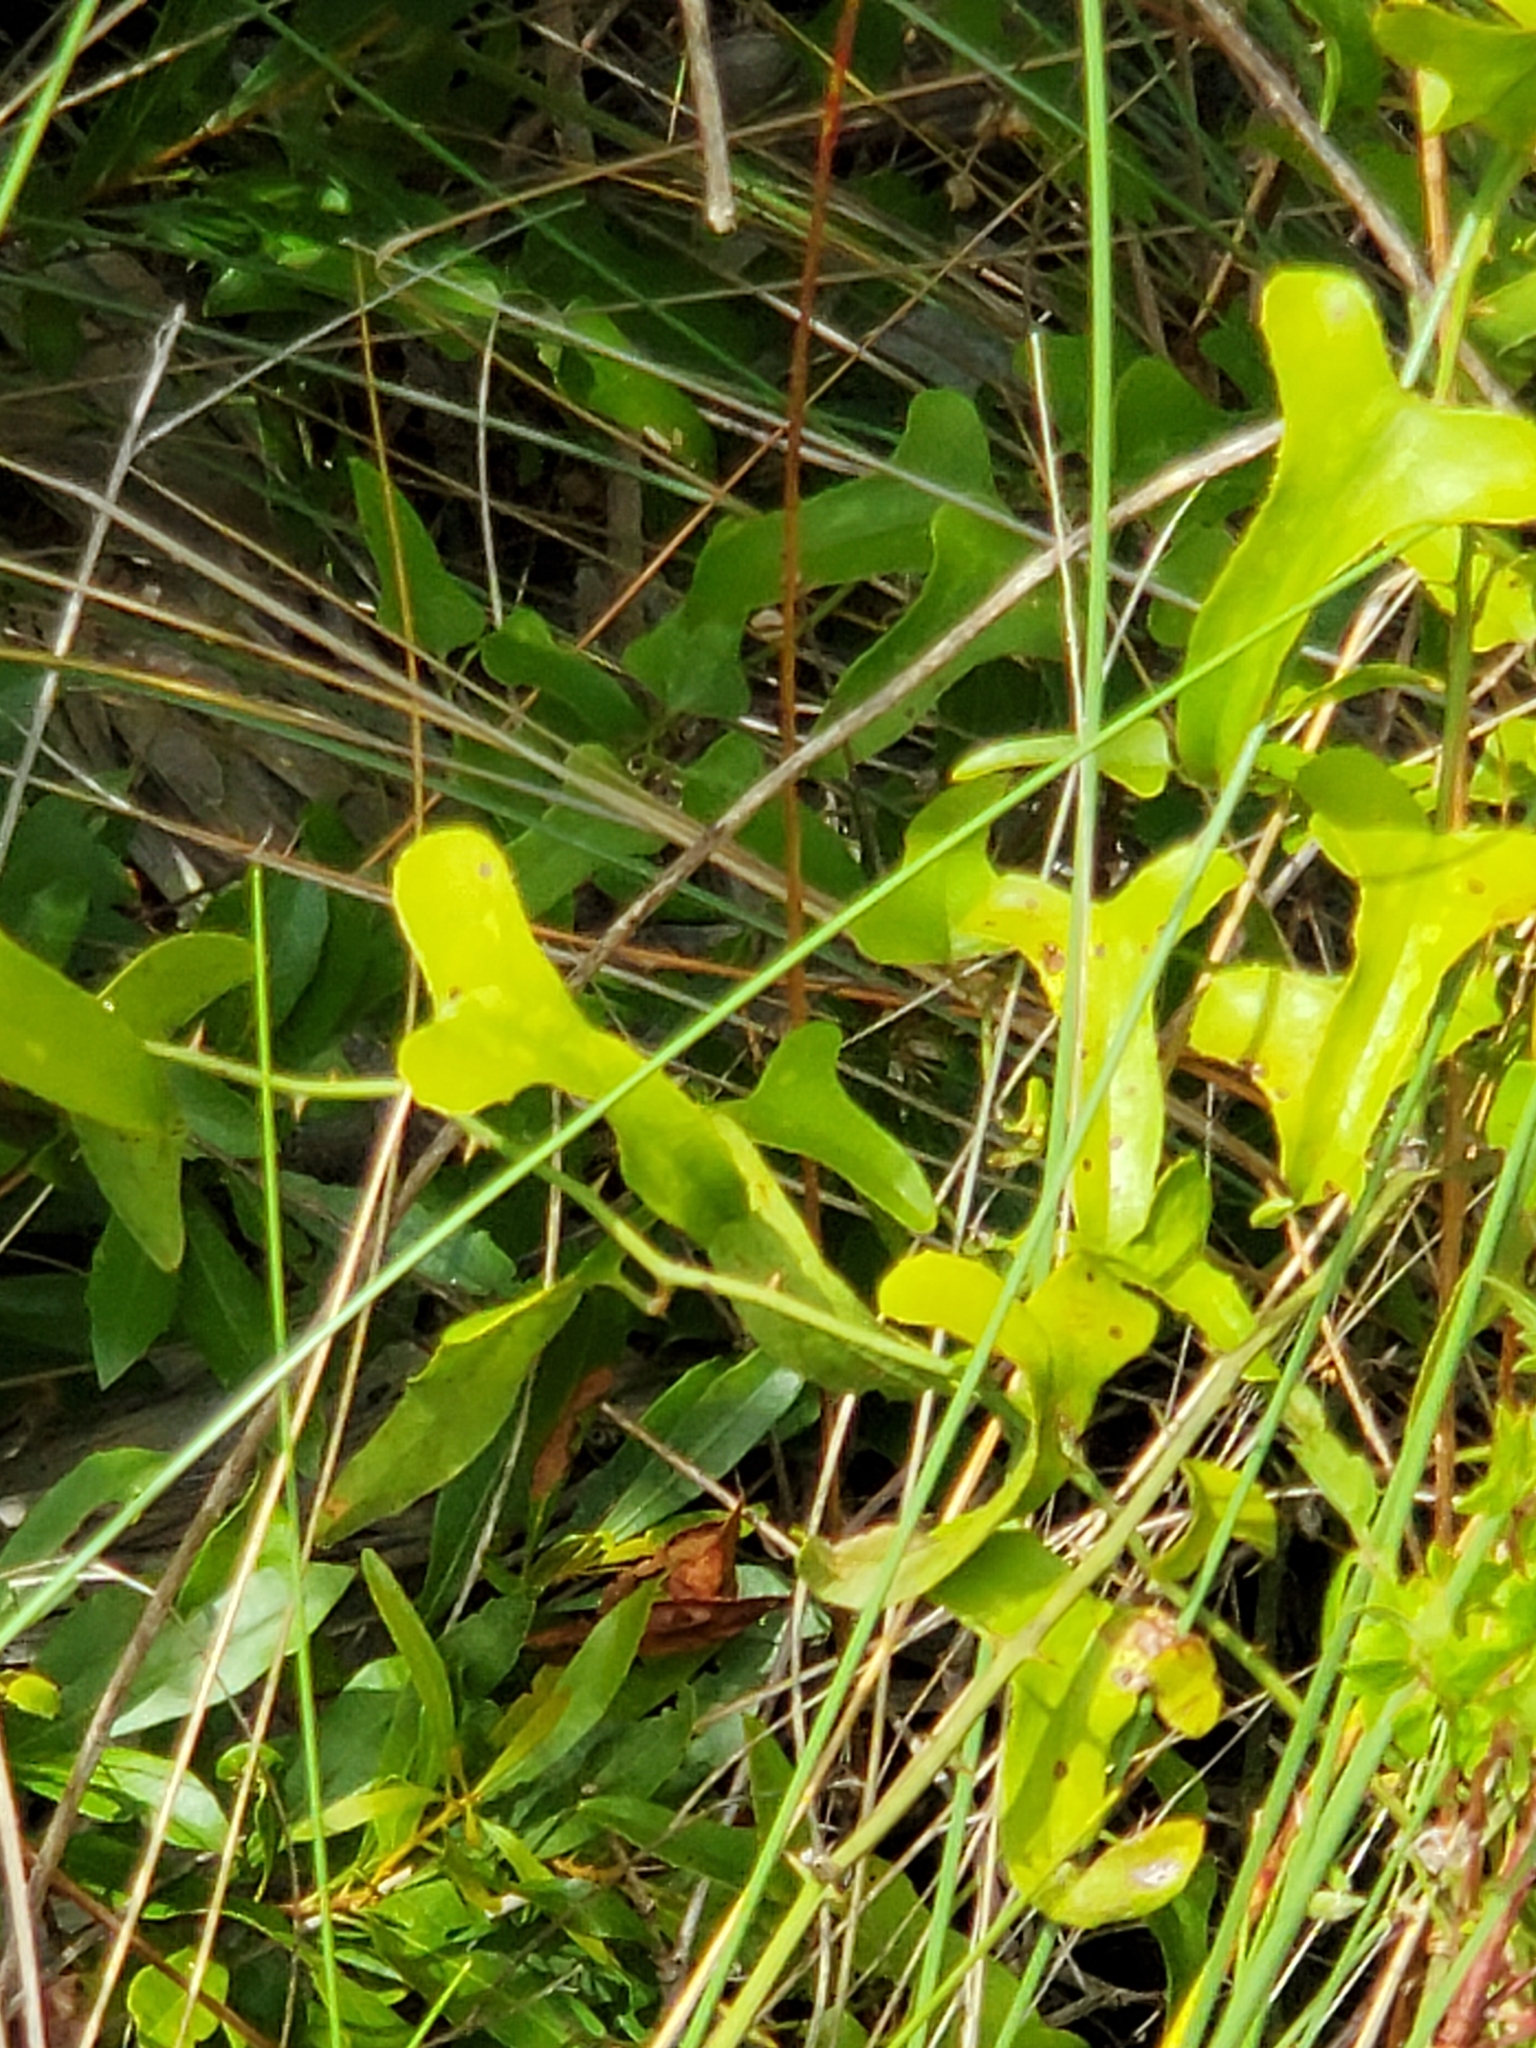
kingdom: Plantae
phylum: Tracheophyta
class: Liliopsida
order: Liliales
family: Smilacaceae
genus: Smilax
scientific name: Smilax bona-nox
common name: Catbrier
